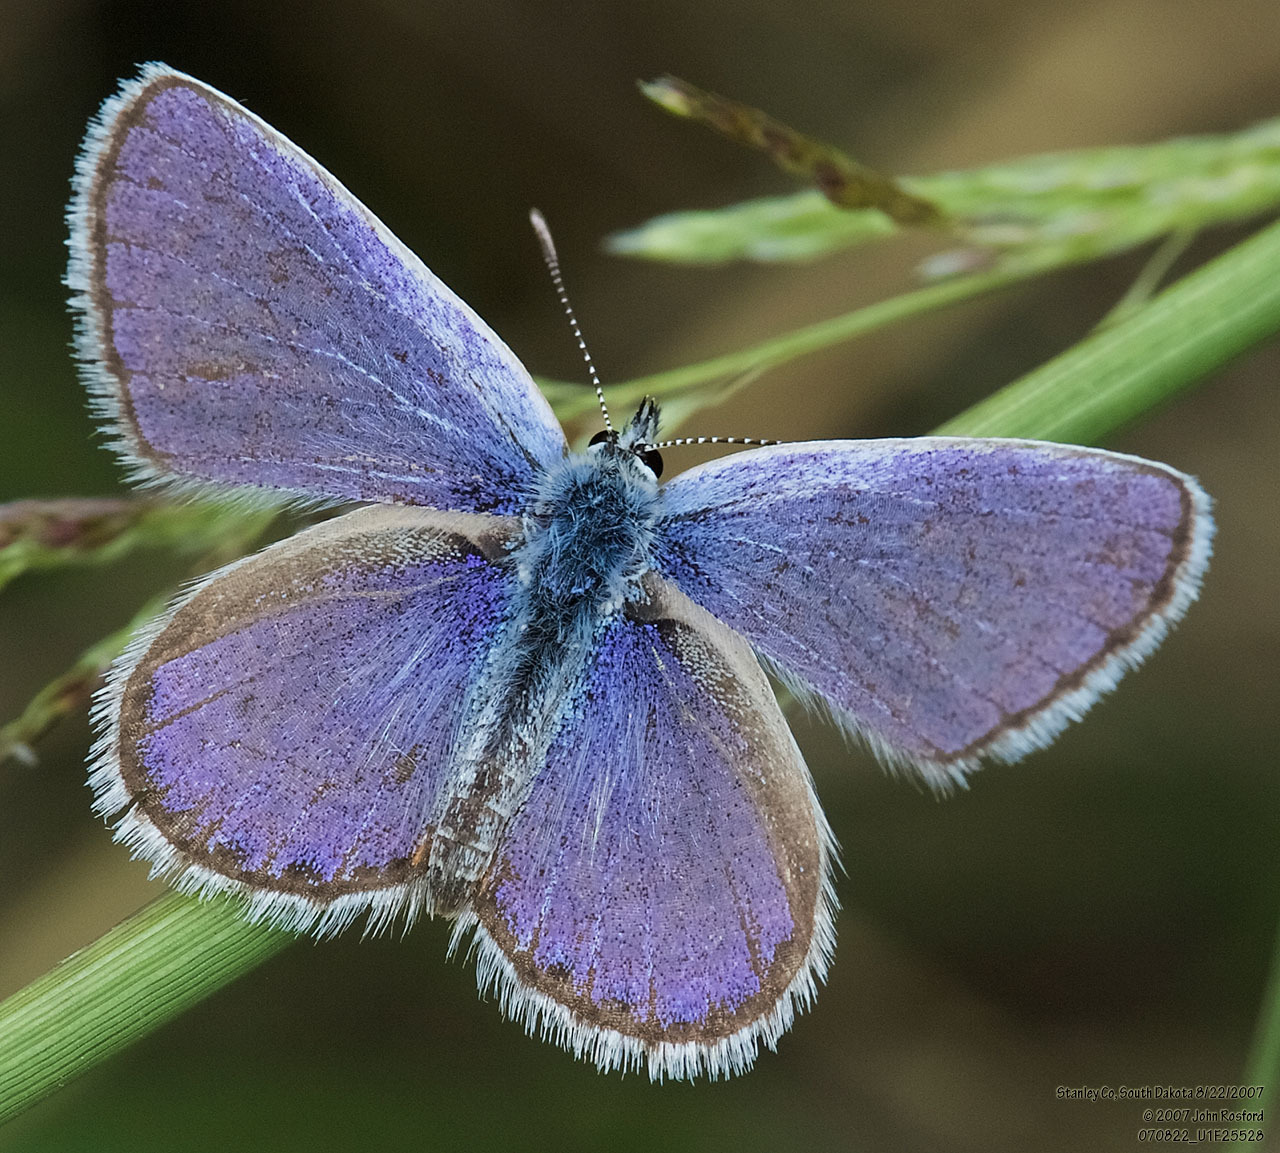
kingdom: Animalia
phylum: Arthropoda
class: Insecta
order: Lepidoptera
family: Lycaenidae
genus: Lycaeides
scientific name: Lycaeides melissa
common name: Melissa blue
